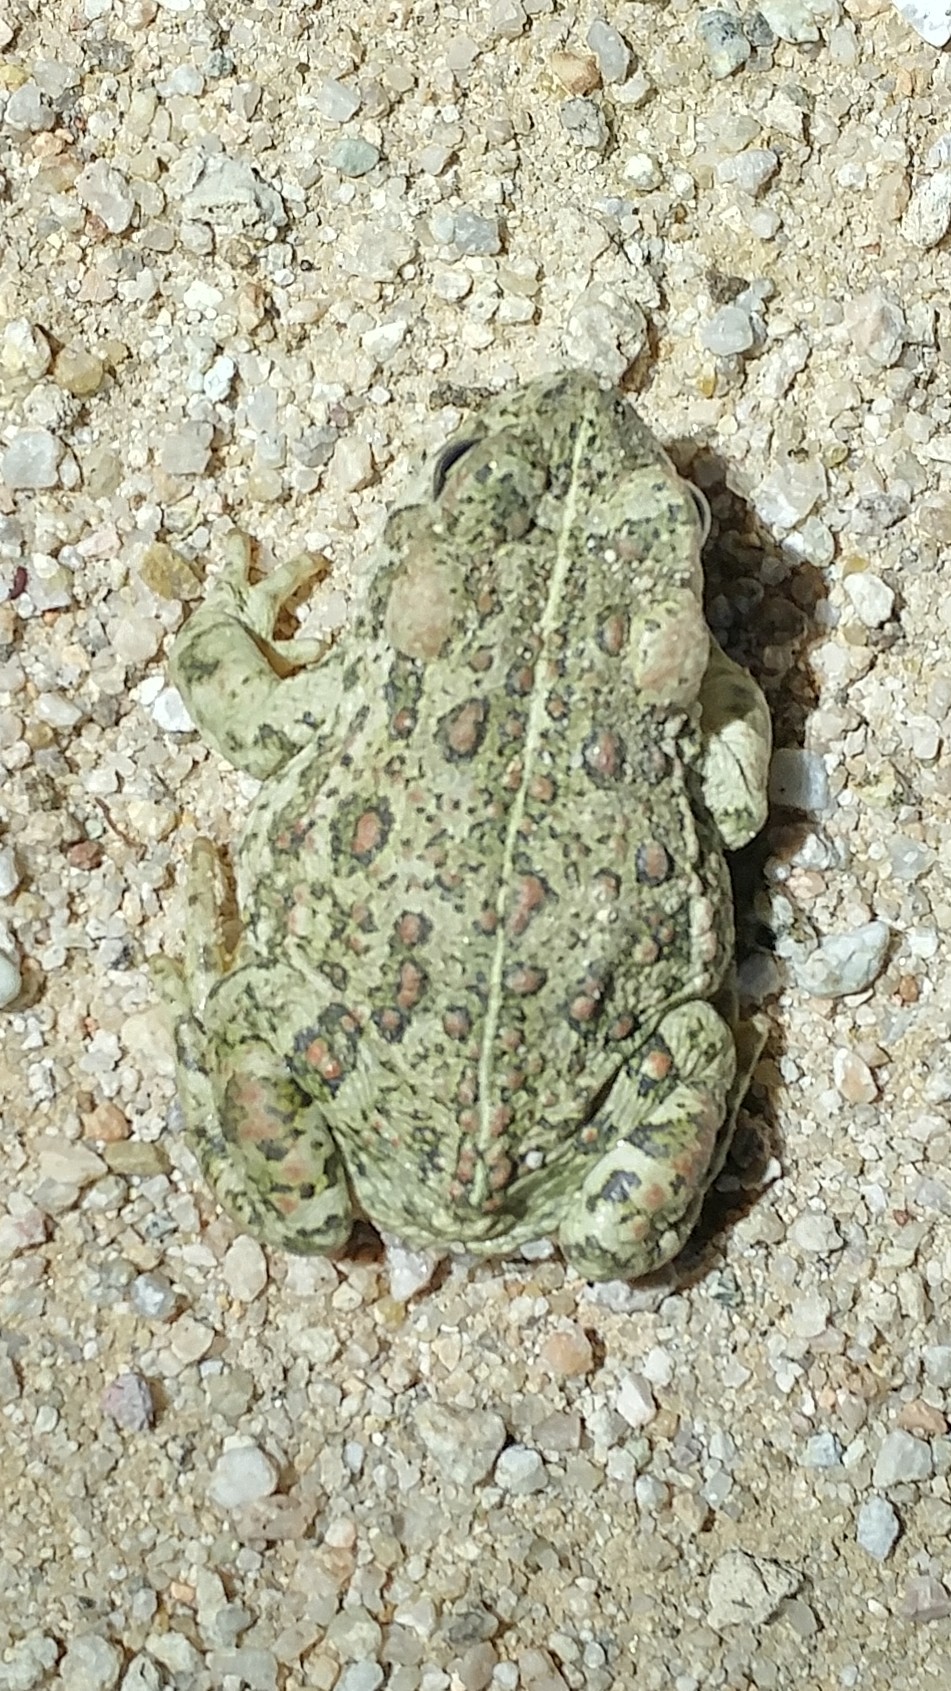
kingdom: Animalia
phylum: Chordata
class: Amphibia
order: Anura
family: Bufonidae
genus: Anaxyrus
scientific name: Anaxyrus boreas
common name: Western toad
